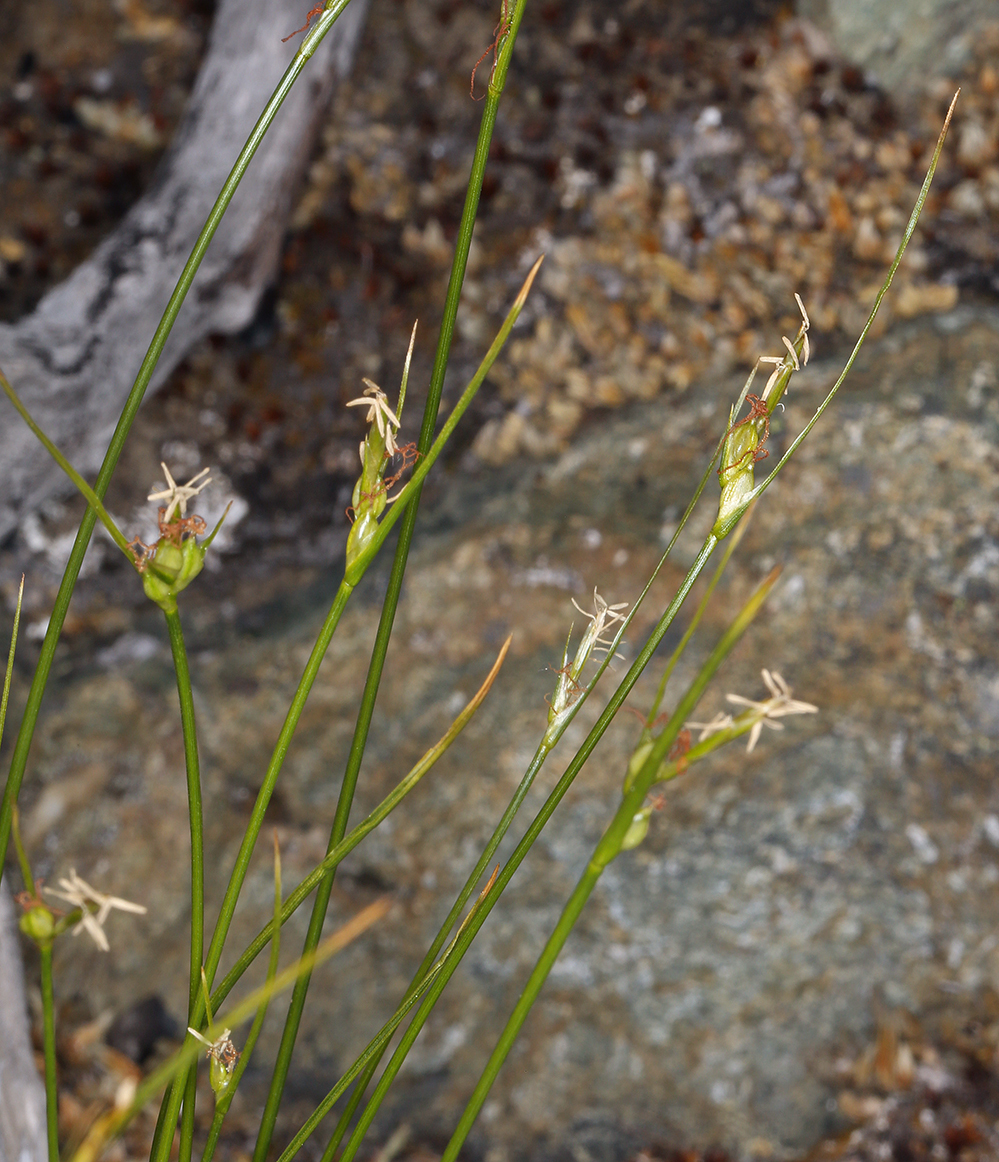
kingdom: Plantae
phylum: Tracheophyta
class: Liliopsida
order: Poales
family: Cyperaceae
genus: Carex
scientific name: Carex multicaulis
